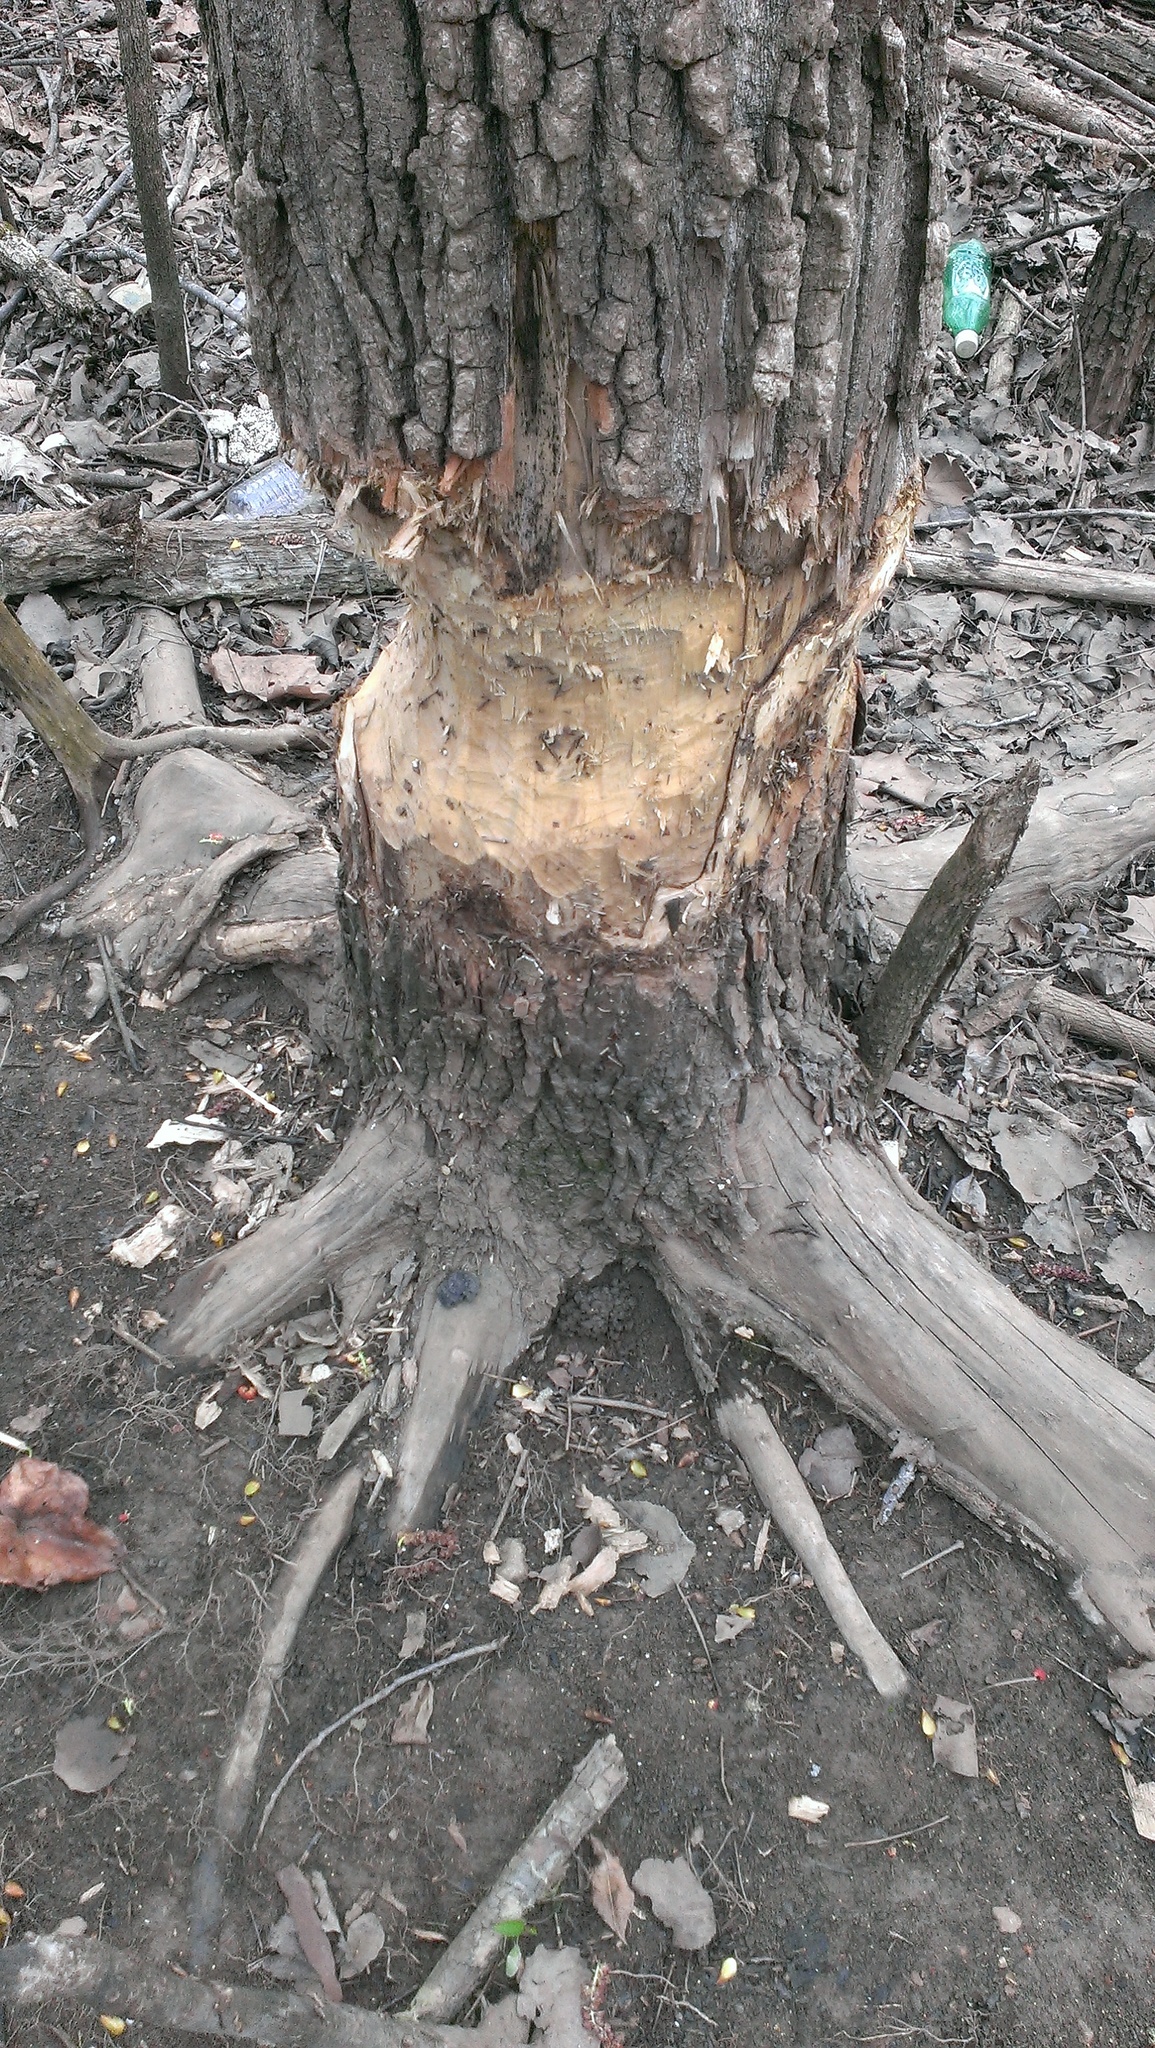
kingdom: Animalia
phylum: Chordata
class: Mammalia
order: Rodentia
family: Castoridae
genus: Castor
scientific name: Castor canadensis
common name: American beaver
